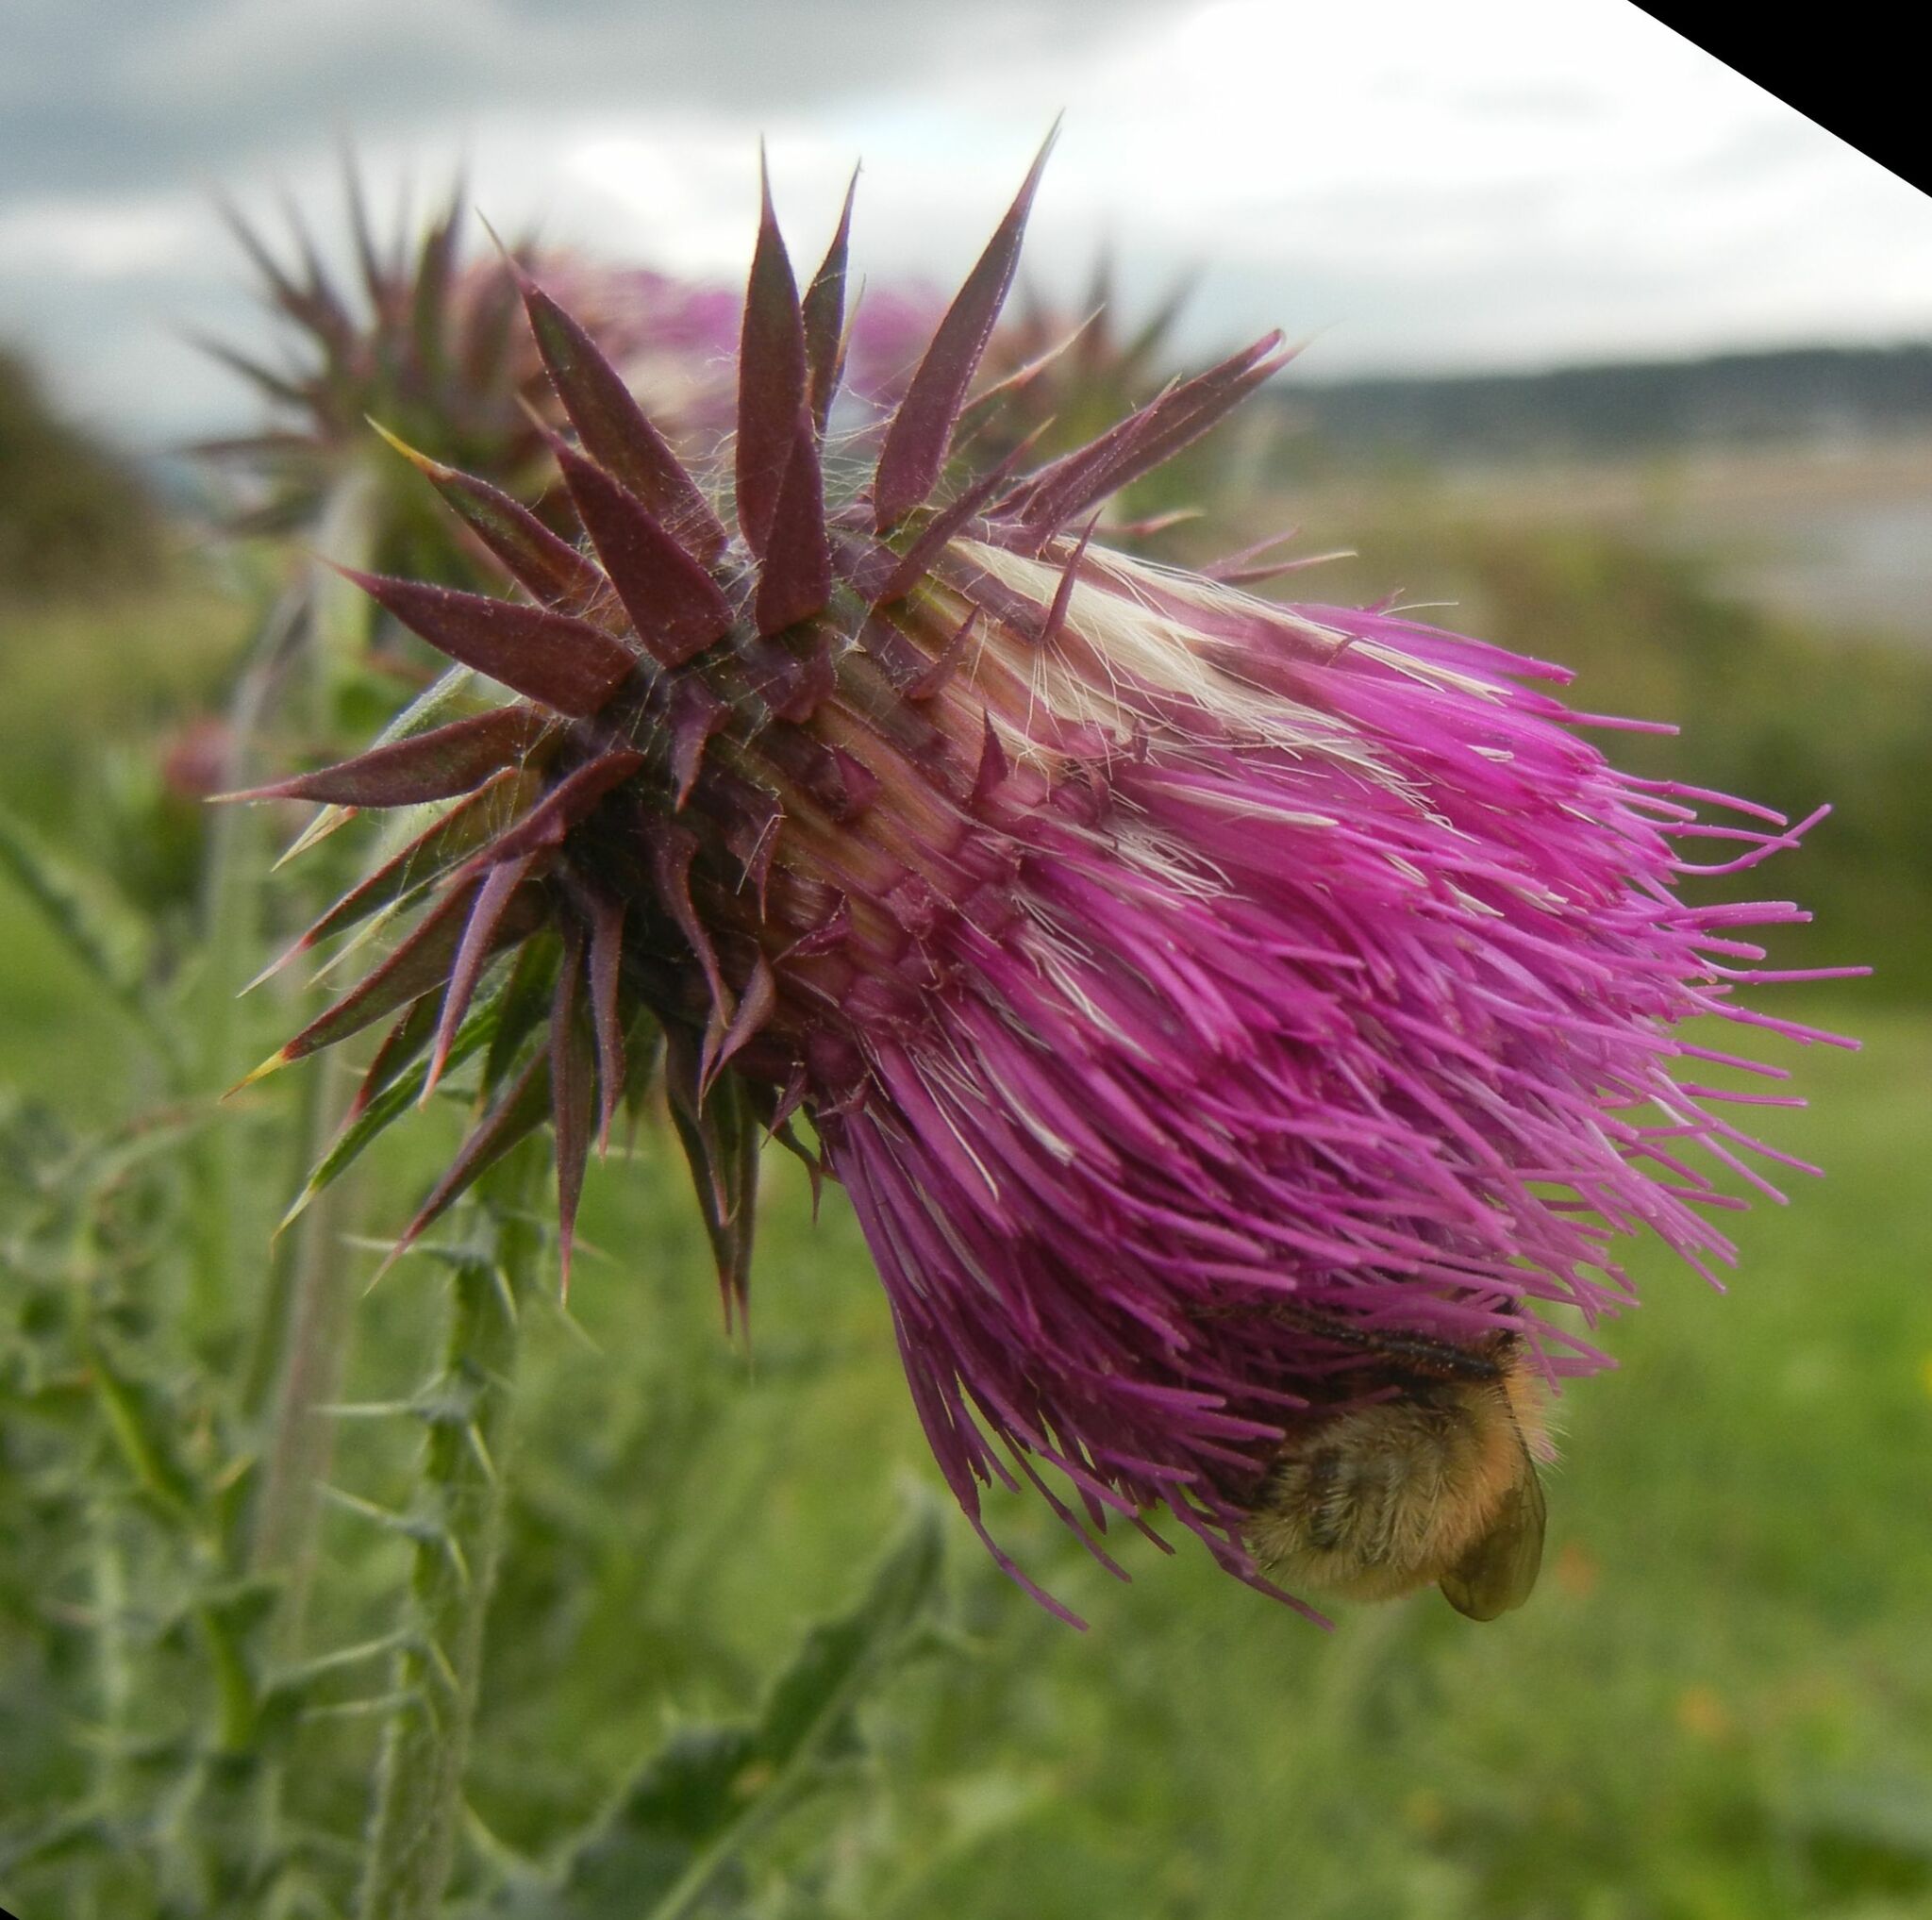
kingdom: Plantae
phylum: Tracheophyta
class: Magnoliopsida
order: Asterales
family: Asteraceae
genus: Carduus
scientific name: Carduus nutans
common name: Musk thistle
